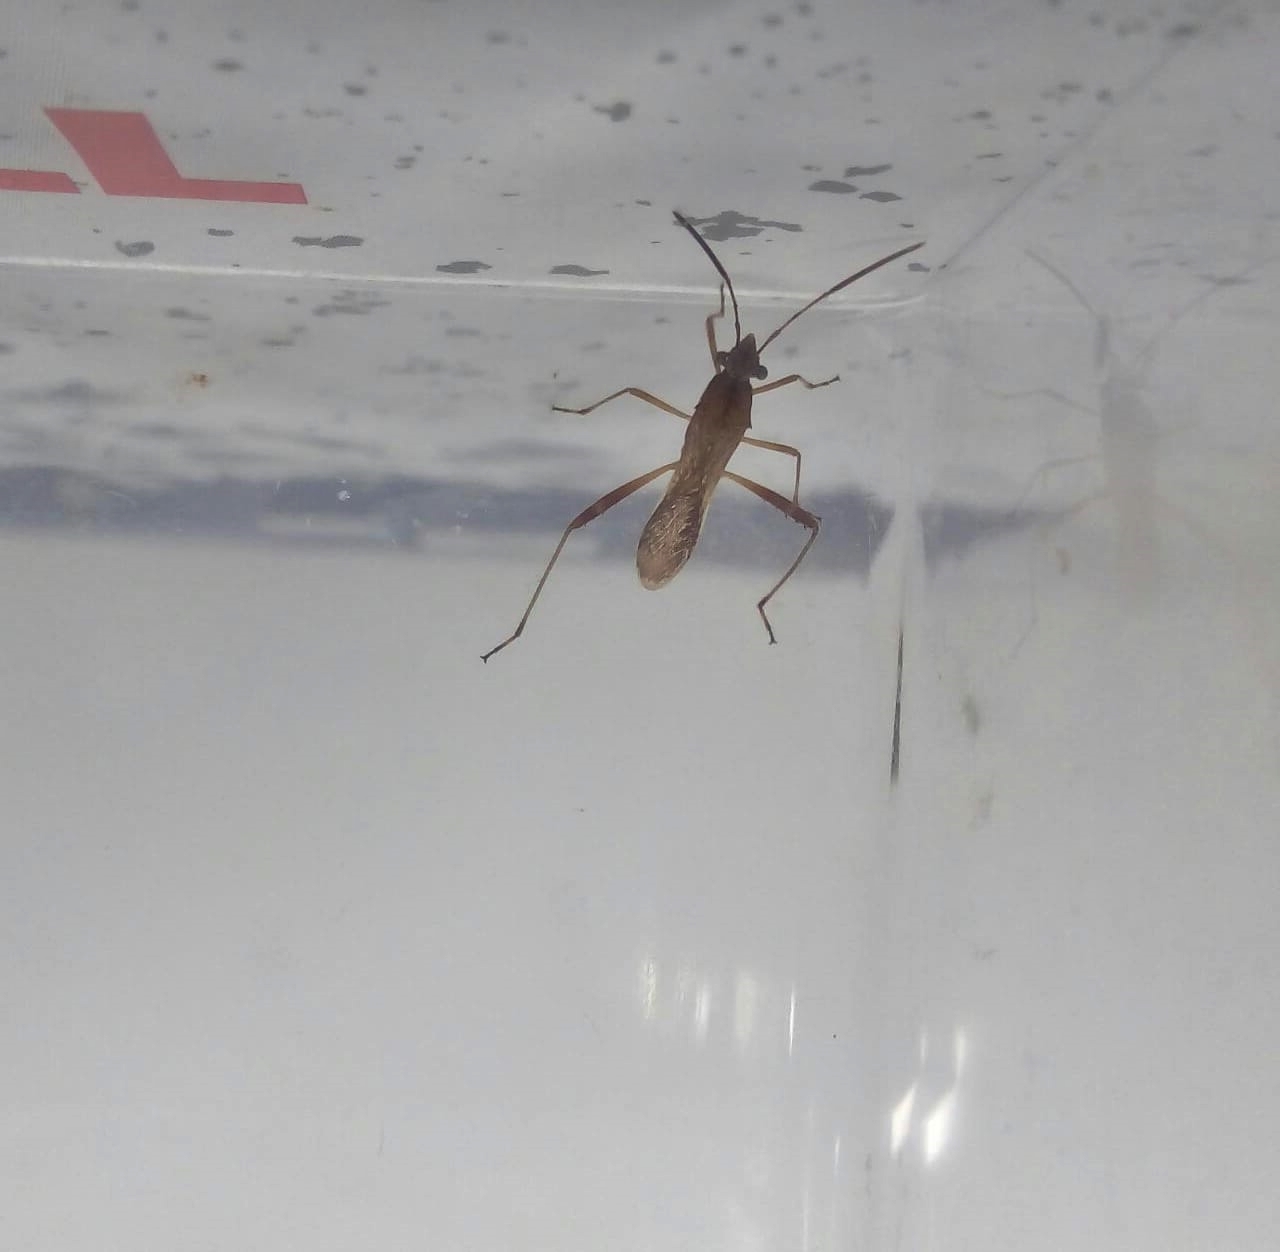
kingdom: Animalia
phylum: Arthropoda
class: Insecta
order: Hemiptera
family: Alydidae
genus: Neomegalotomus
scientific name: Neomegalotomus parvus
